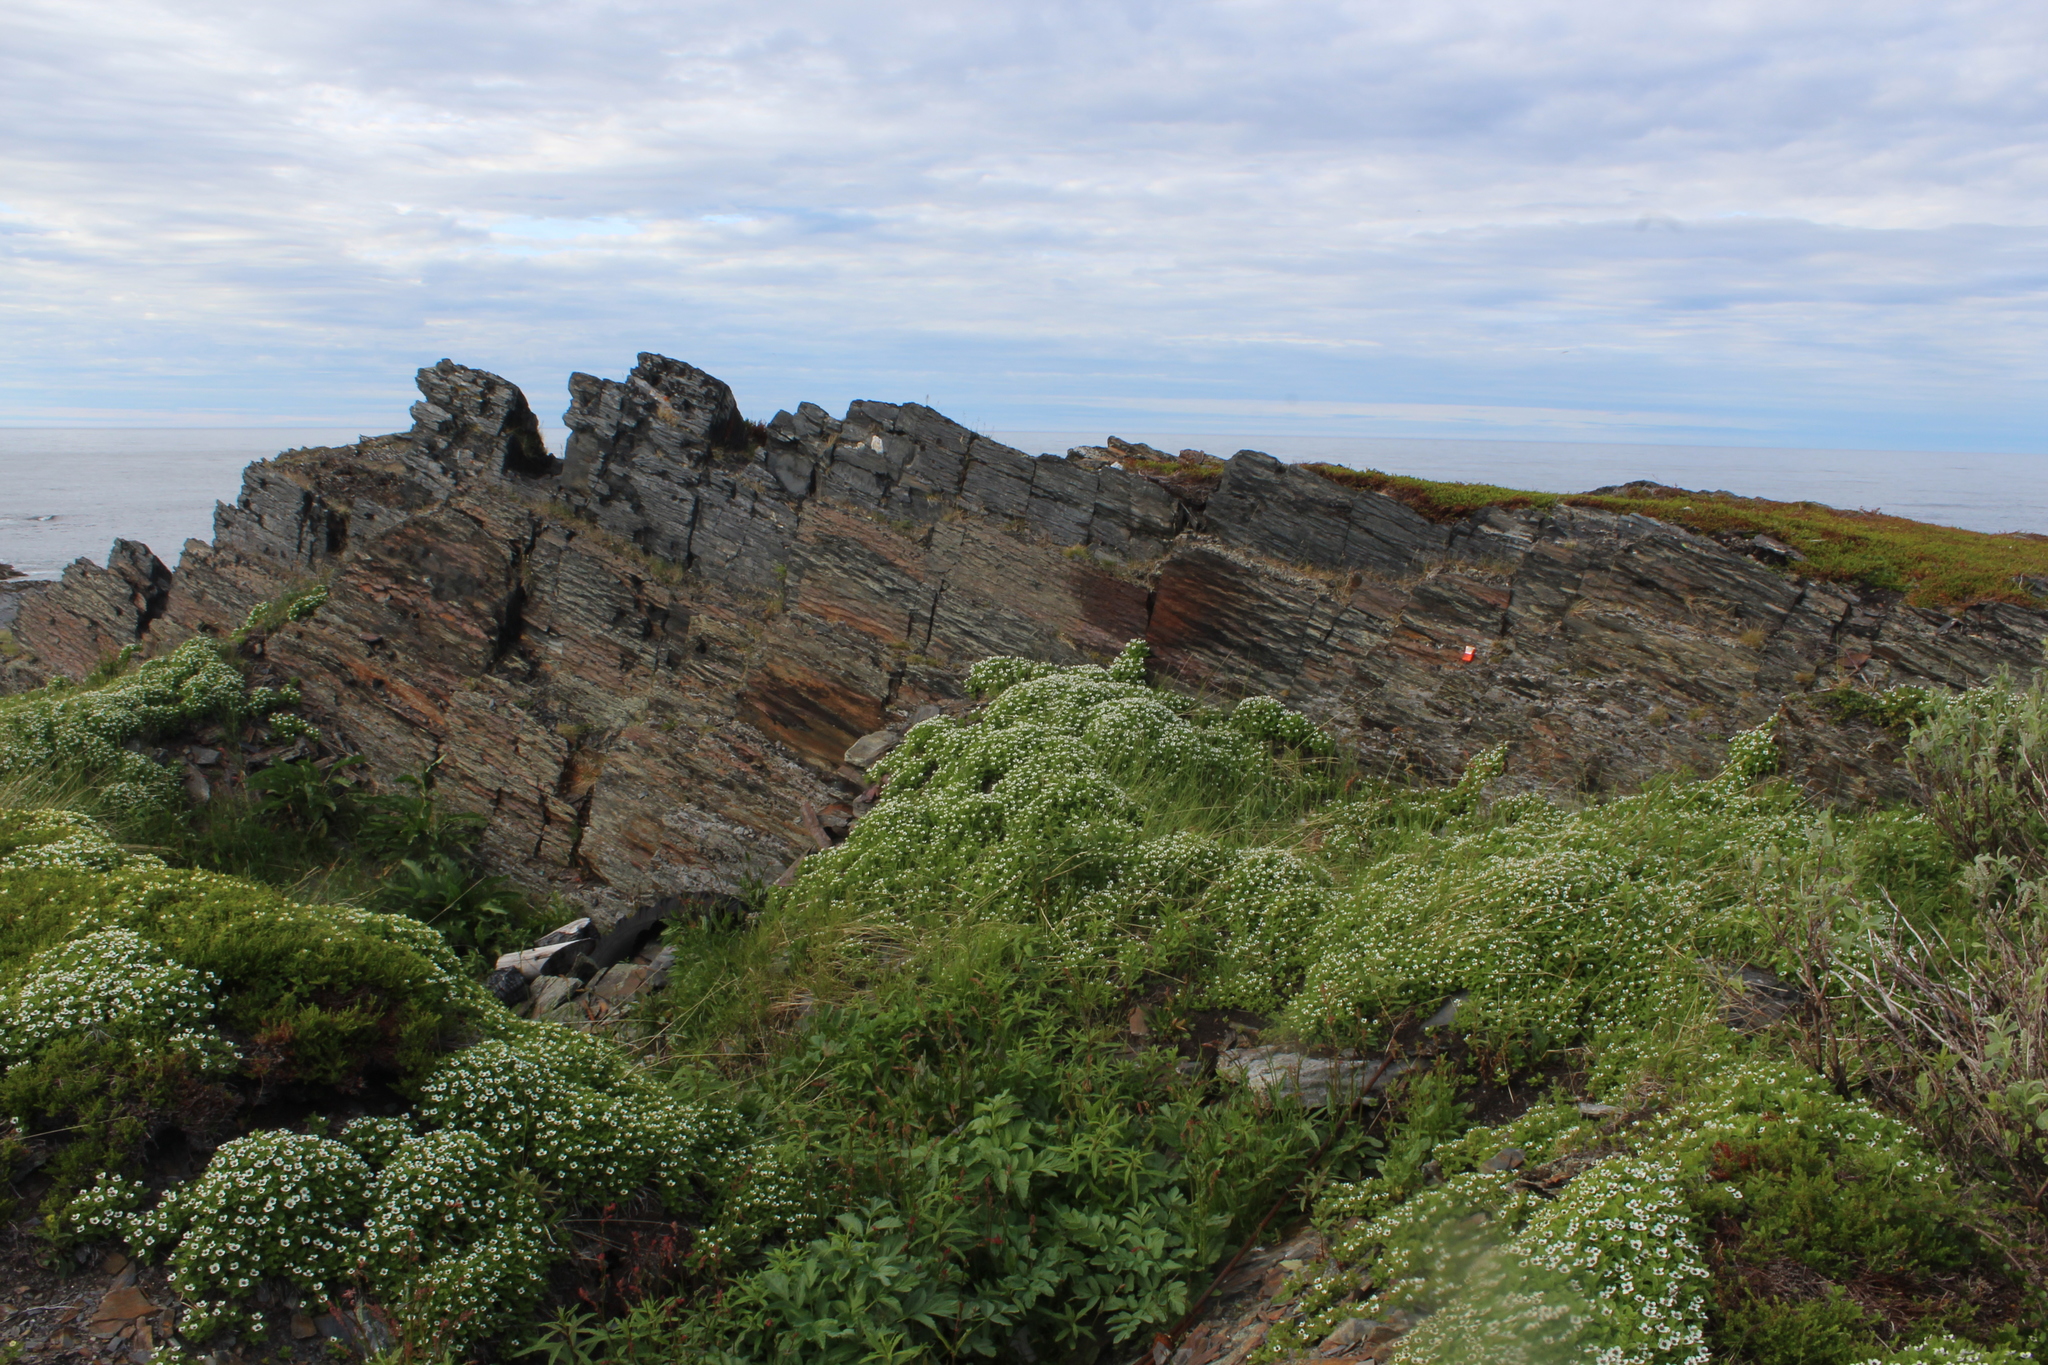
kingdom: Plantae
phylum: Tracheophyta
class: Magnoliopsida
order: Cornales
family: Cornaceae
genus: Cornus
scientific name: Cornus suecica
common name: Dwarf cornel
